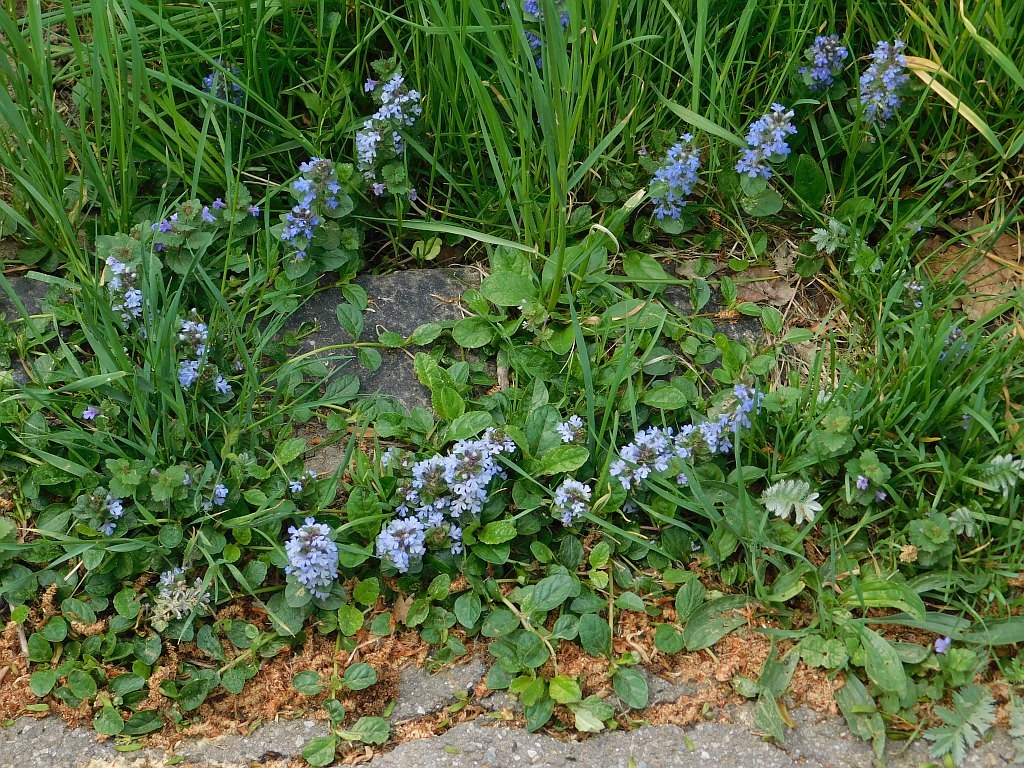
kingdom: Plantae
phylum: Tracheophyta
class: Magnoliopsida
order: Lamiales
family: Lamiaceae
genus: Ajuga
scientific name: Ajuga reptans
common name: Bugle
